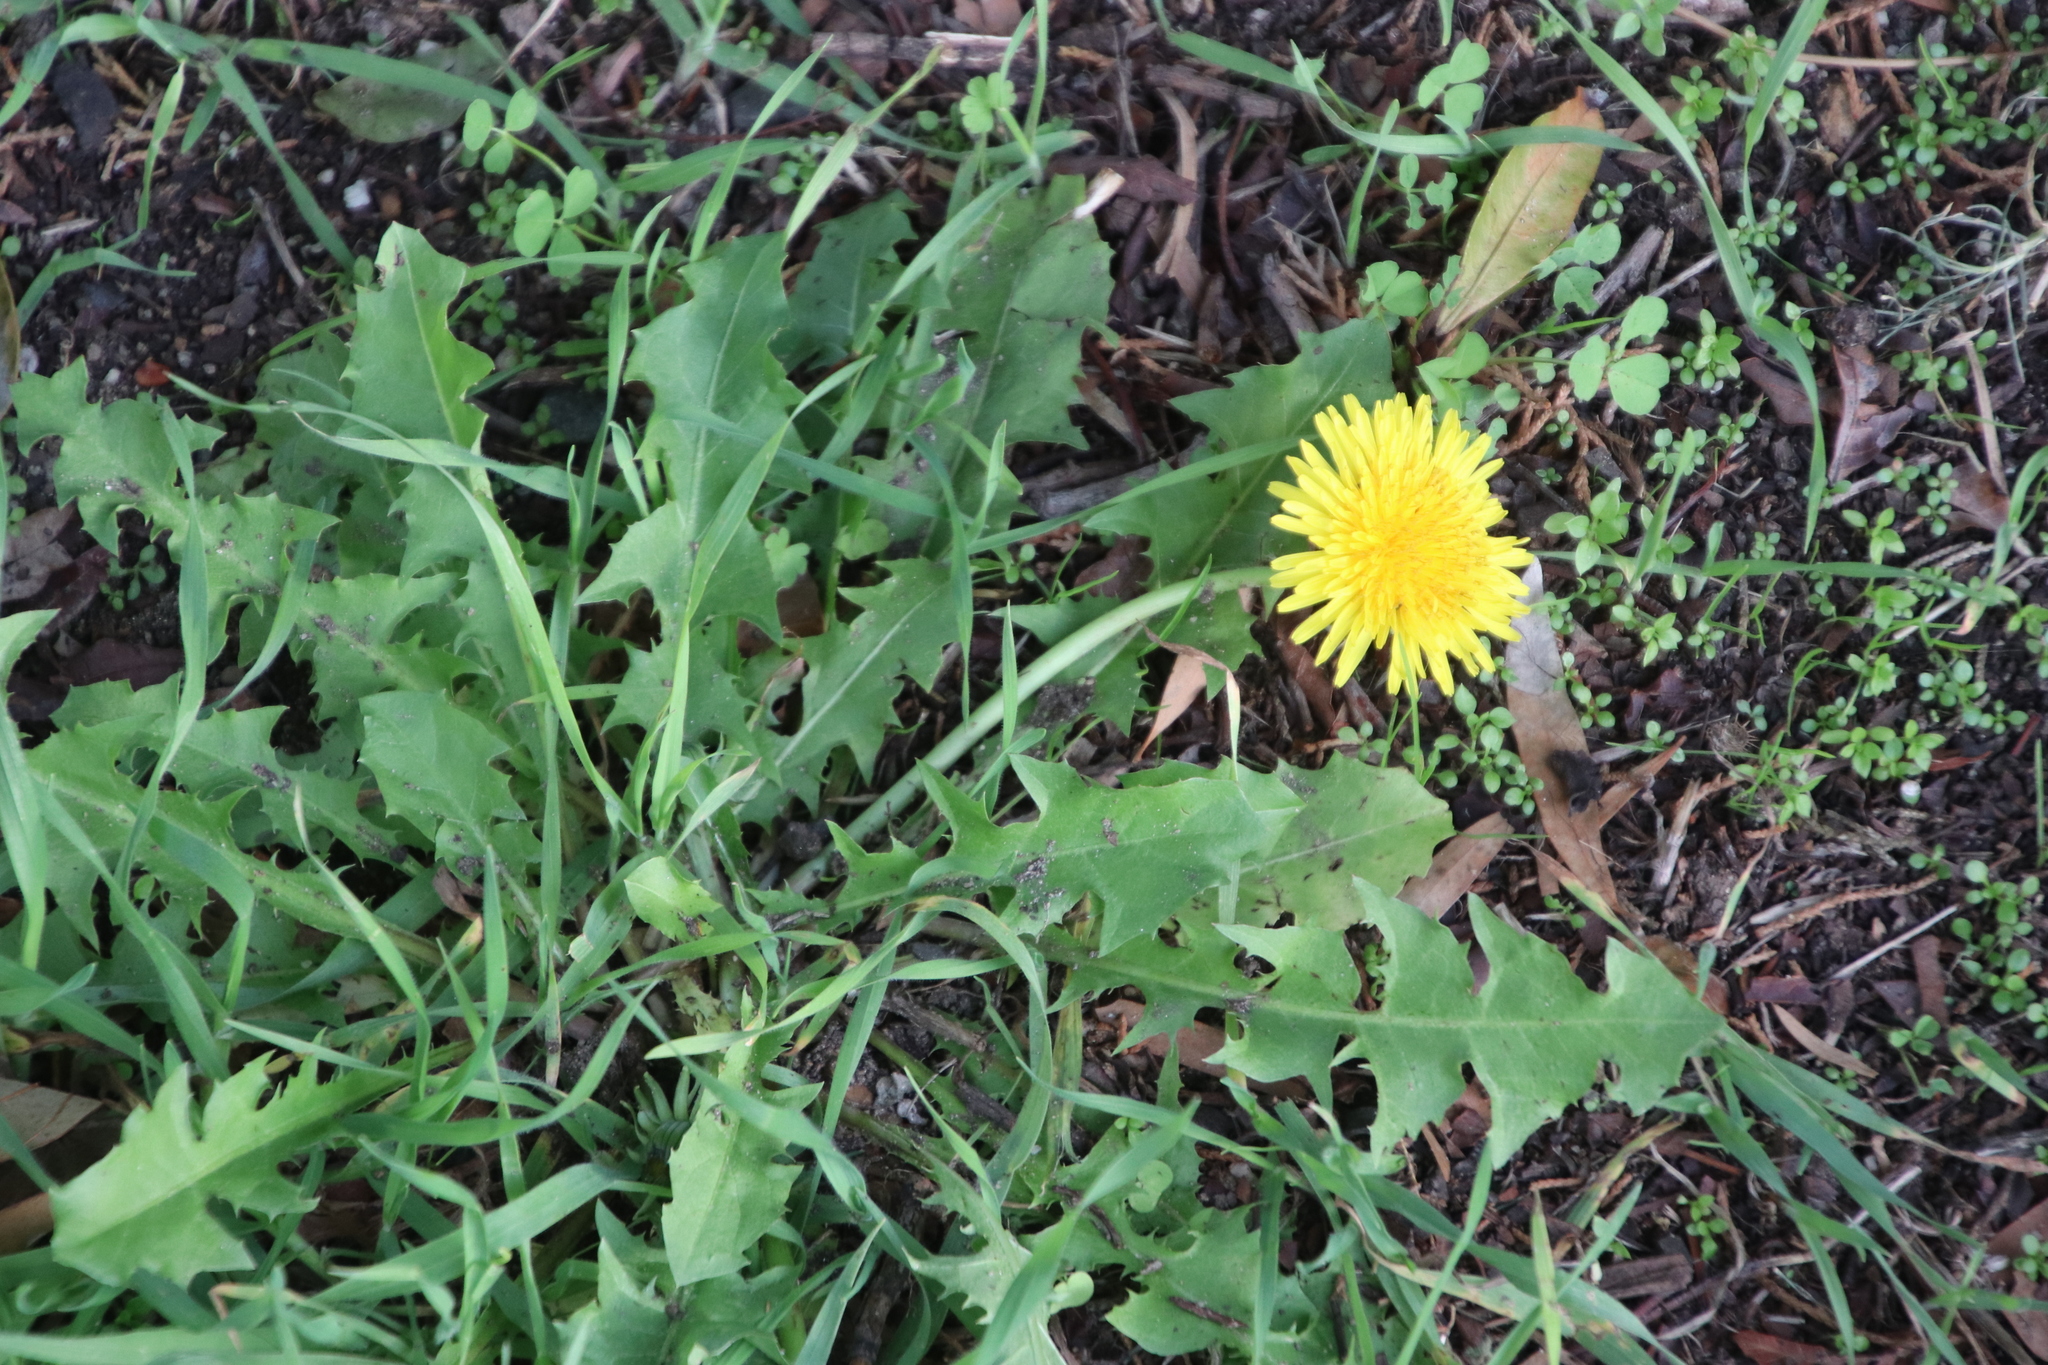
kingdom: Plantae
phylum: Tracheophyta
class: Magnoliopsida
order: Asterales
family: Asteraceae
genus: Taraxacum
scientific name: Taraxacum officinale
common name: Common dandelion
